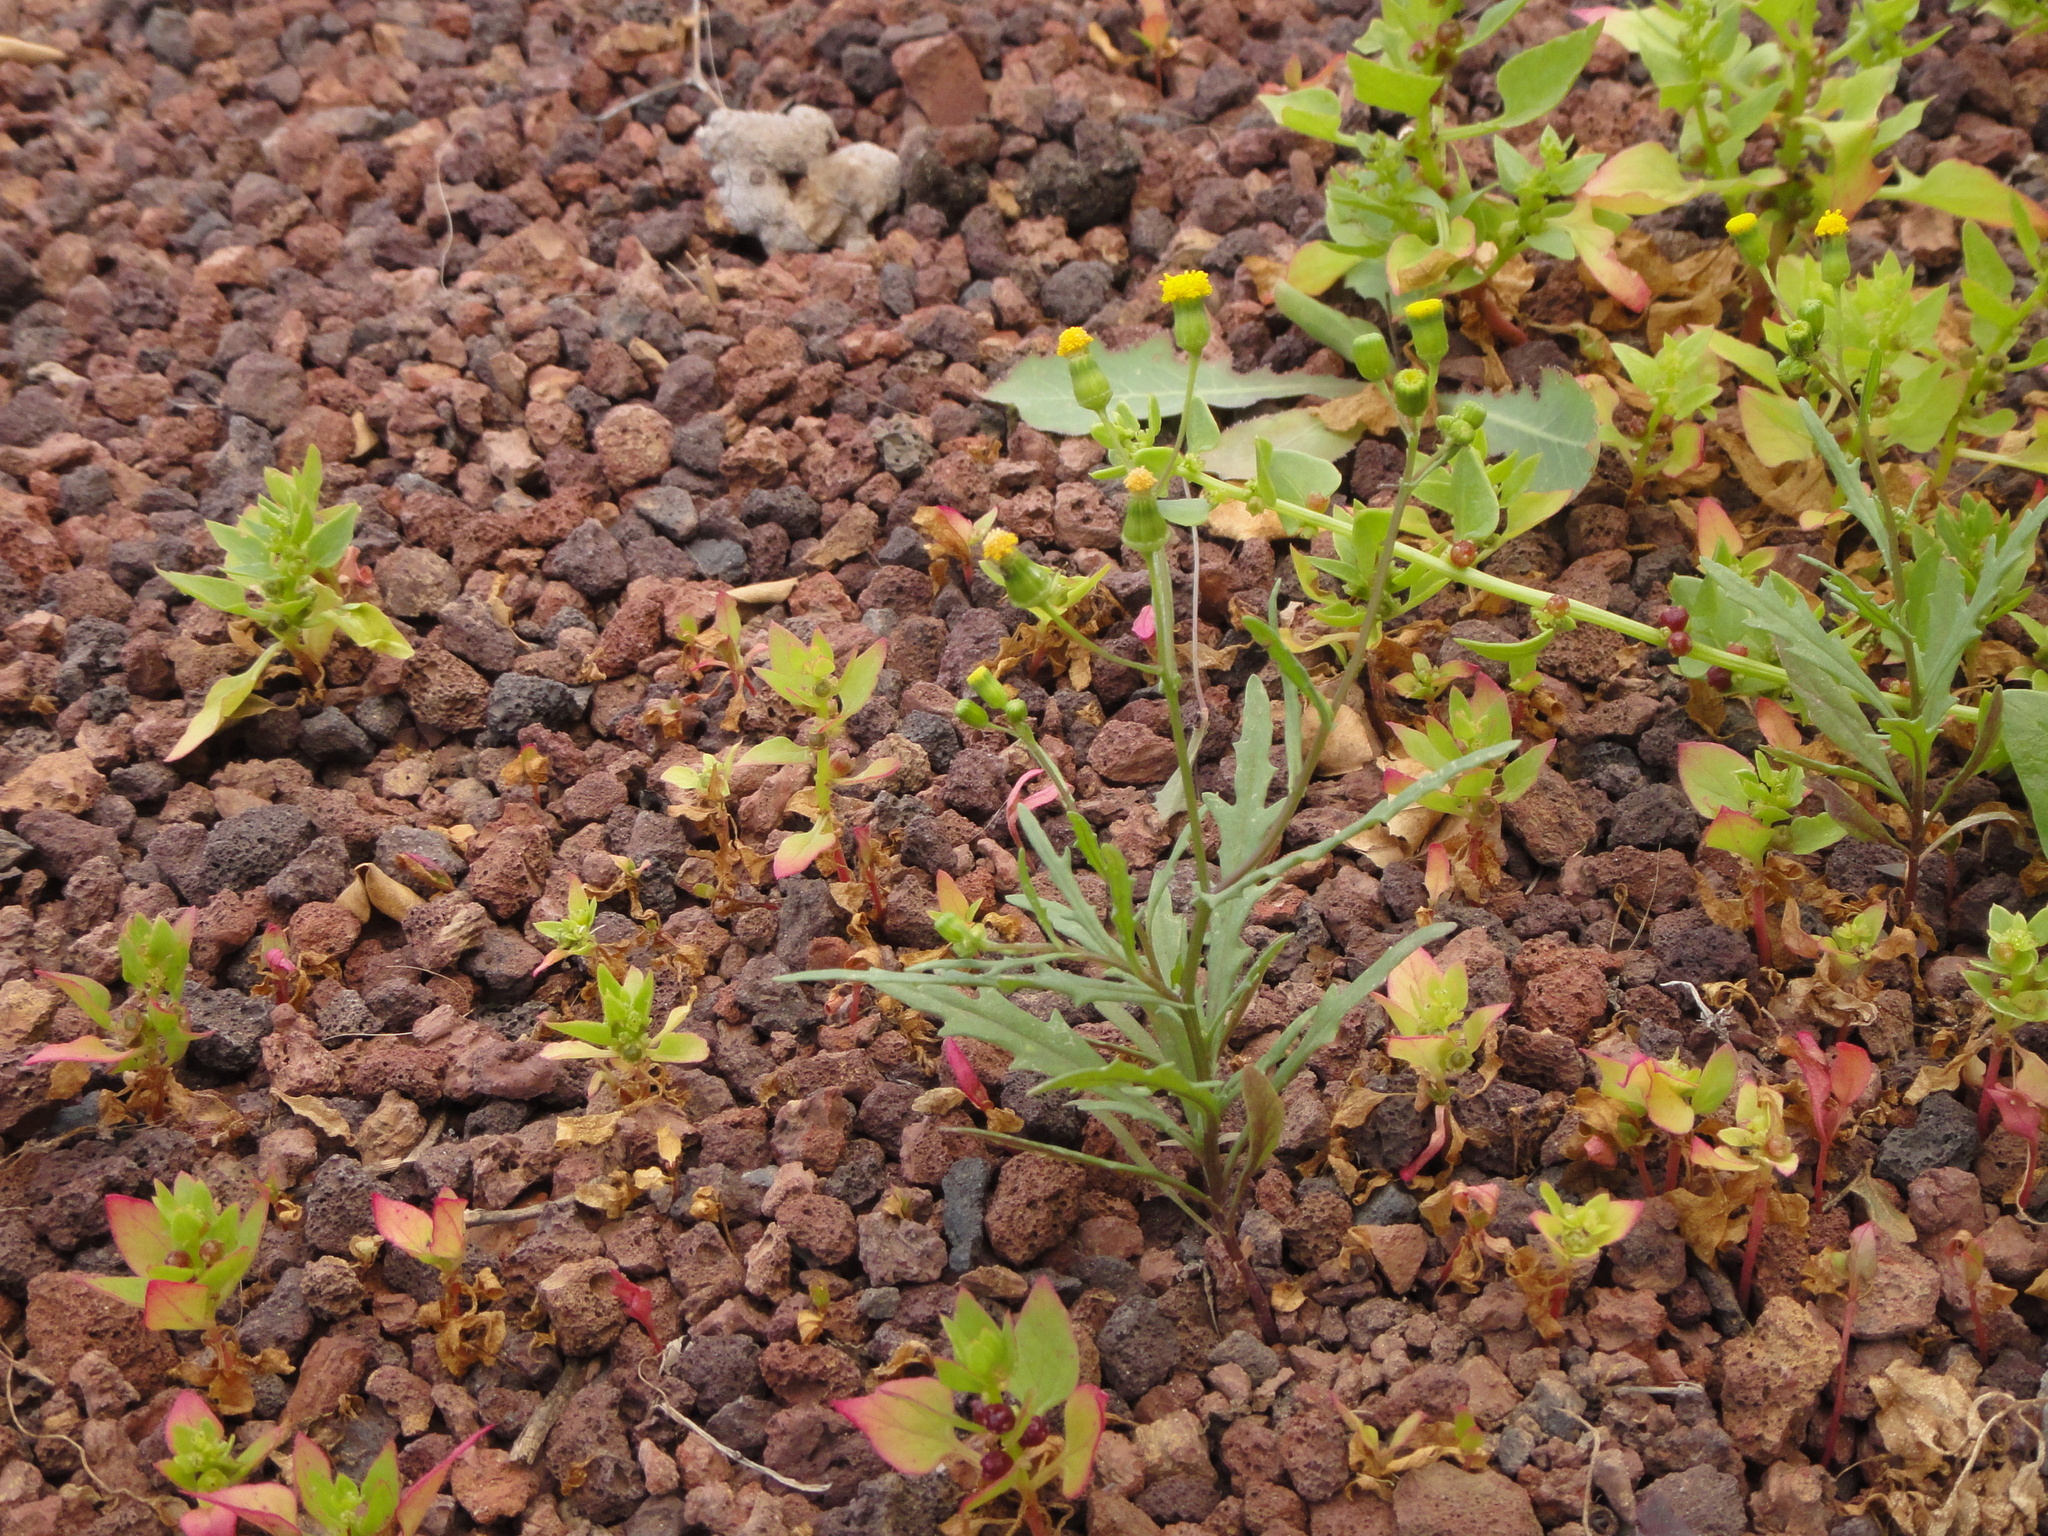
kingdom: Plantae
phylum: Tracheophyta
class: Magnoliopsida
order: Asterales
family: Asteraceae
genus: Senecio
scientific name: Senecio massaicus
